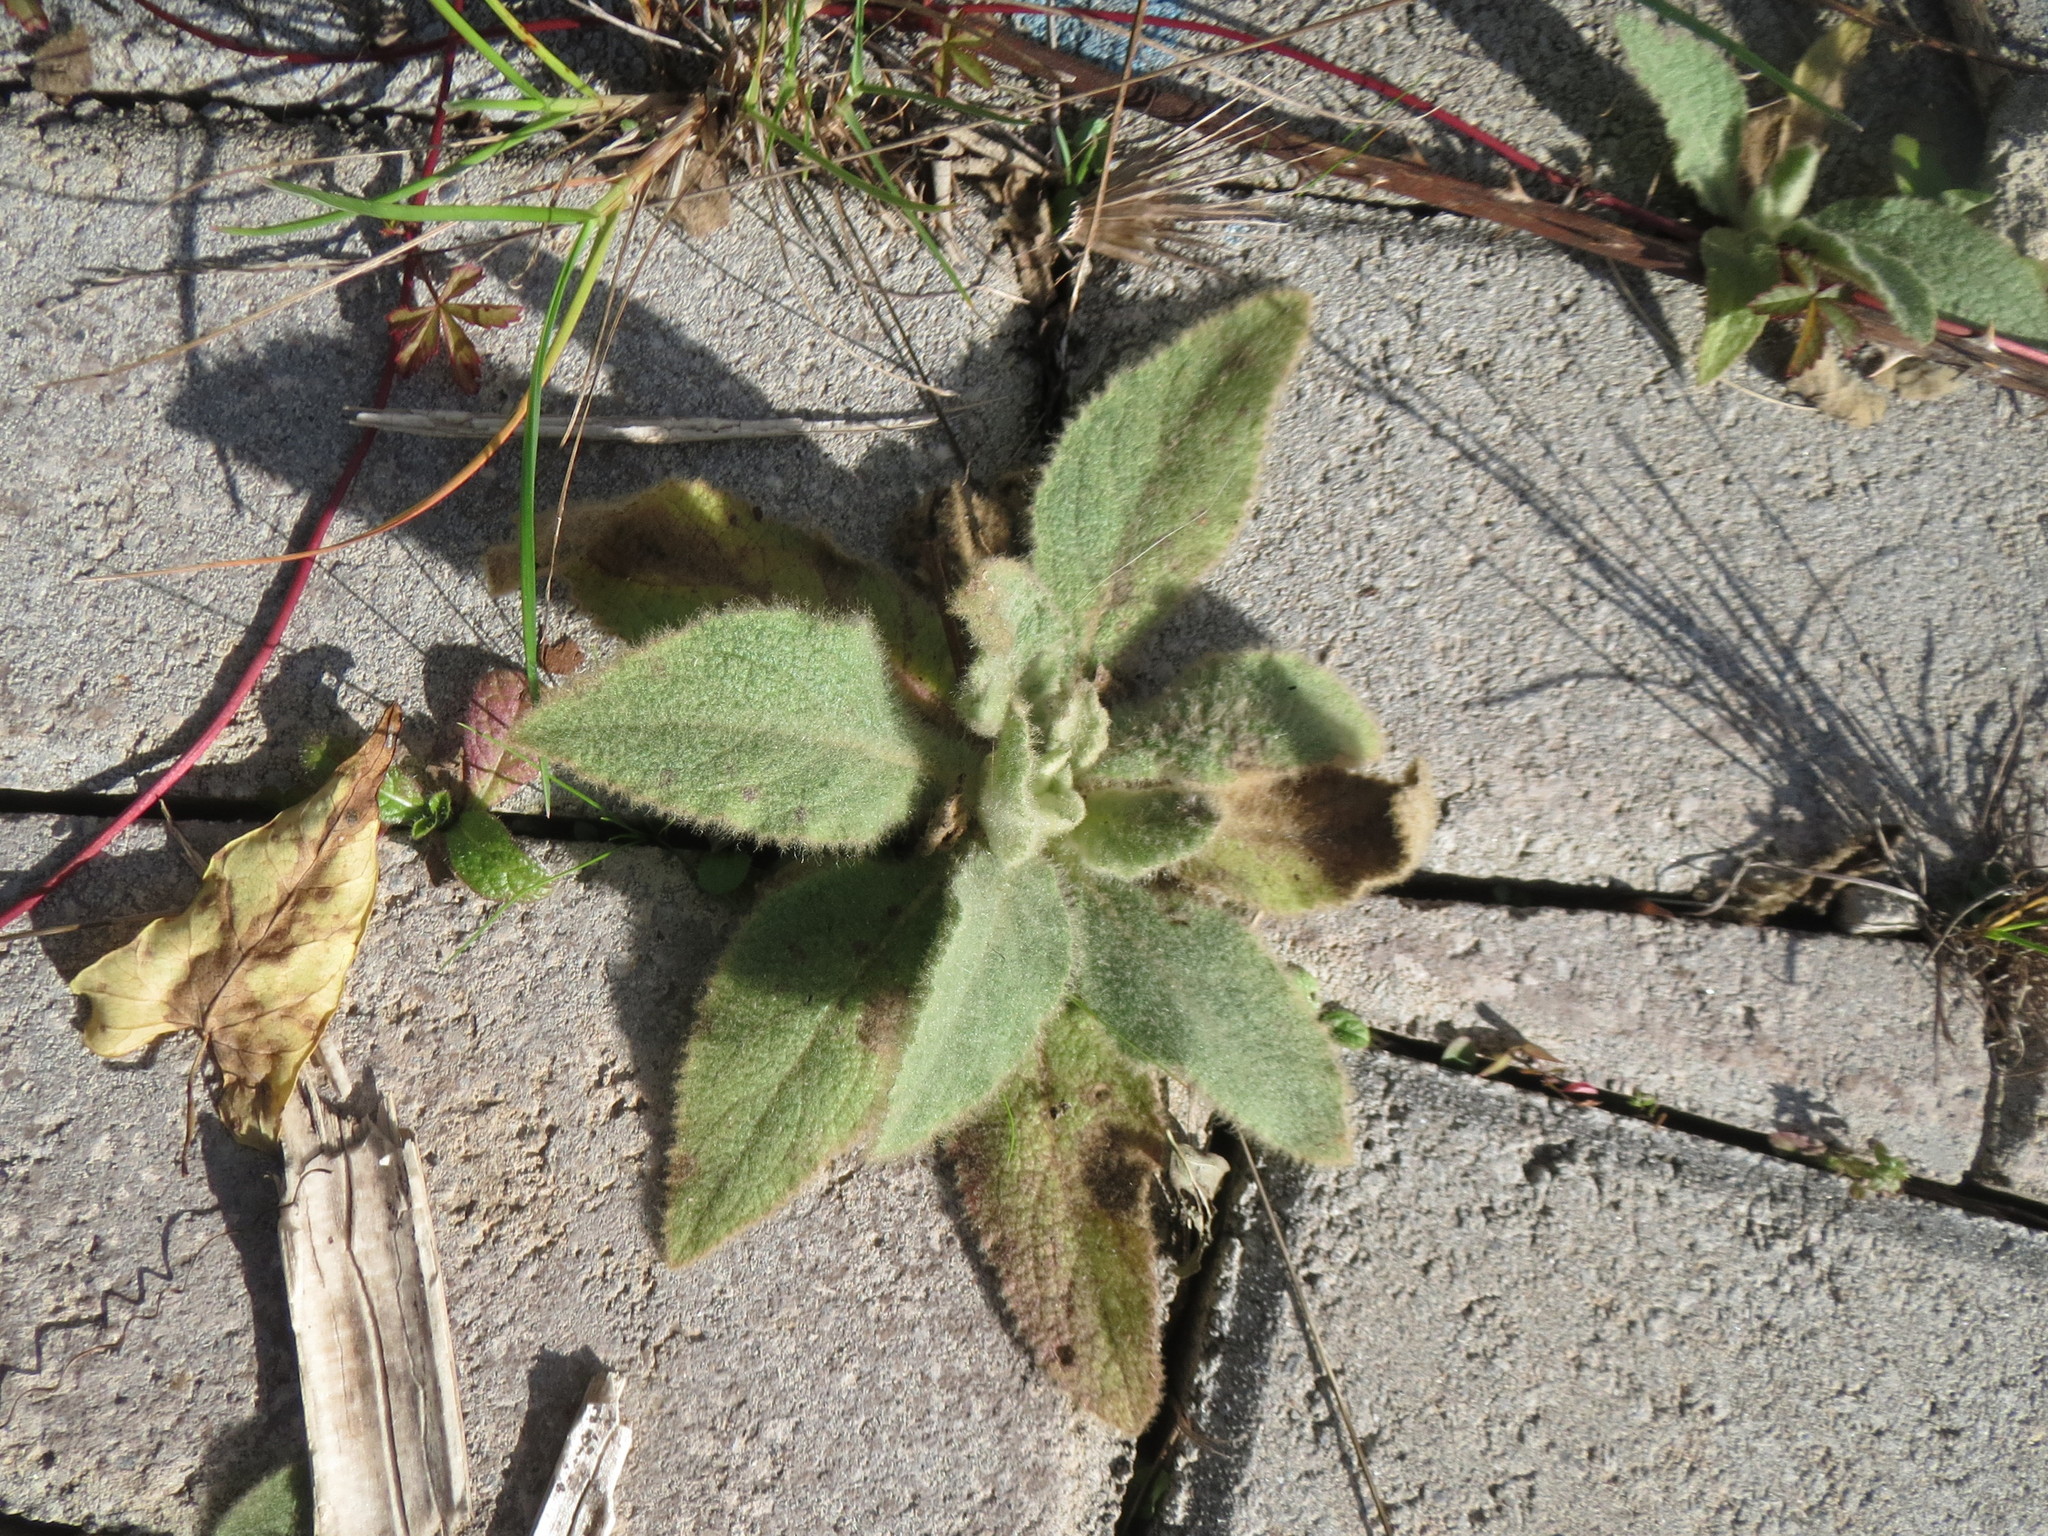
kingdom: Plantae
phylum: Tracheophyta
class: Magnoliopsida
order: Lamiales
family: Scrophulariaceae
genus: Verbascum
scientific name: Verbascum thapsus
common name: Common mullein
